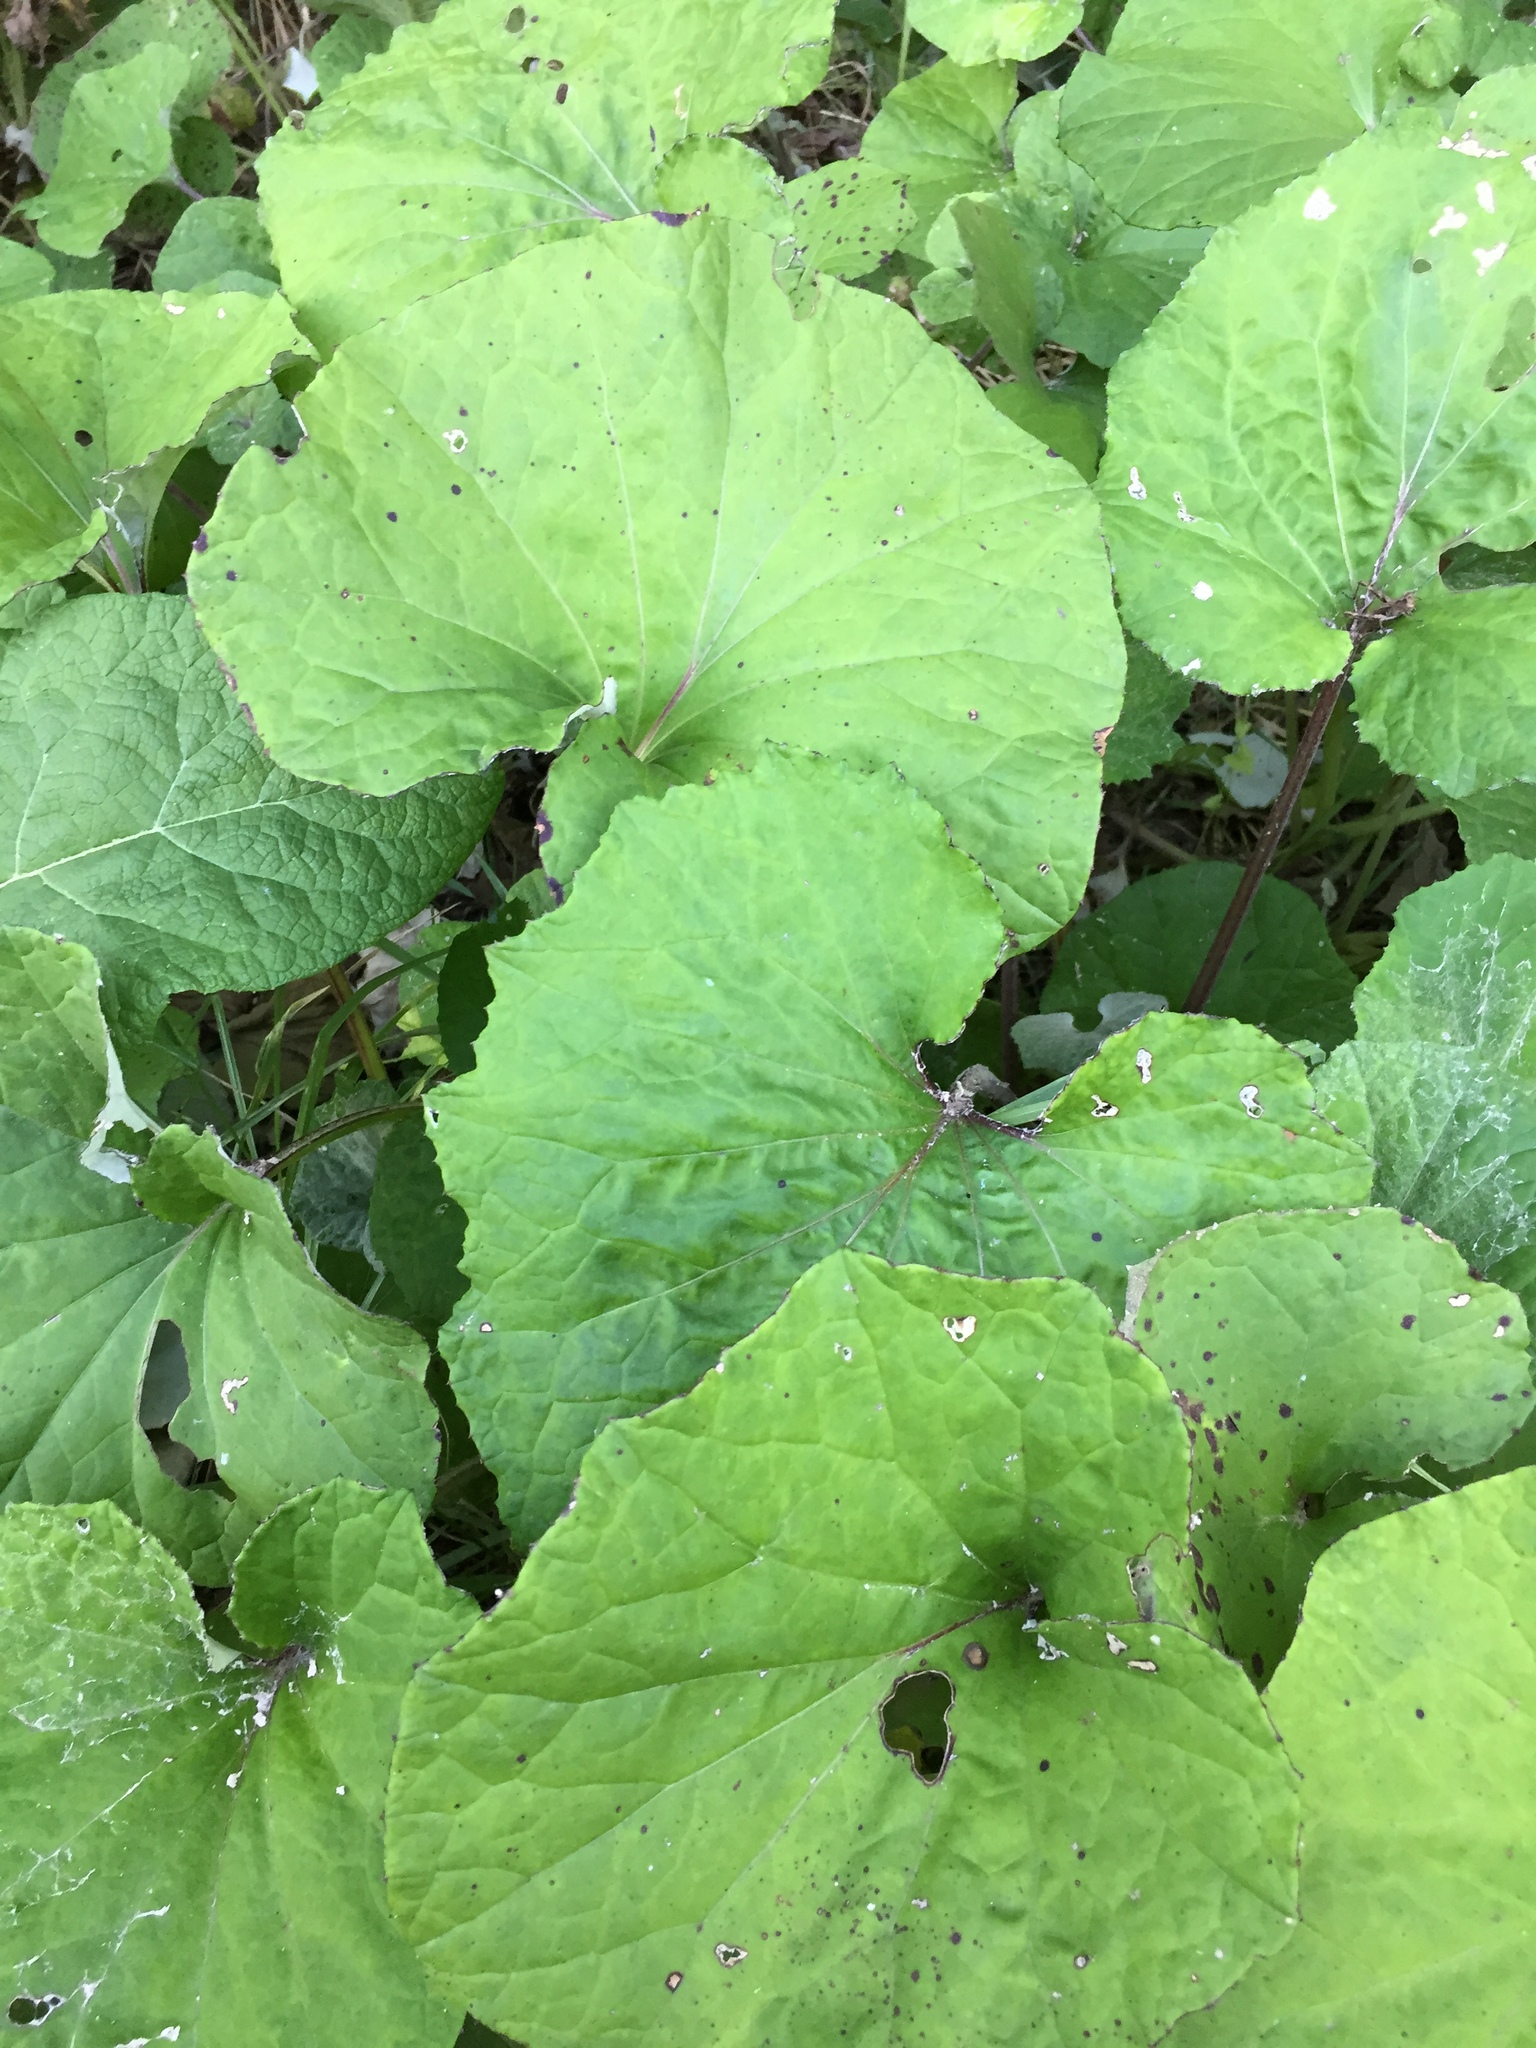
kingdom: Plantae
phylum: Tracheophyta
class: Magnoliopsida
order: Asterales
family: Asteraceae
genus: Tussilago
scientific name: Tussilago farfara
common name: Coltsfoot
